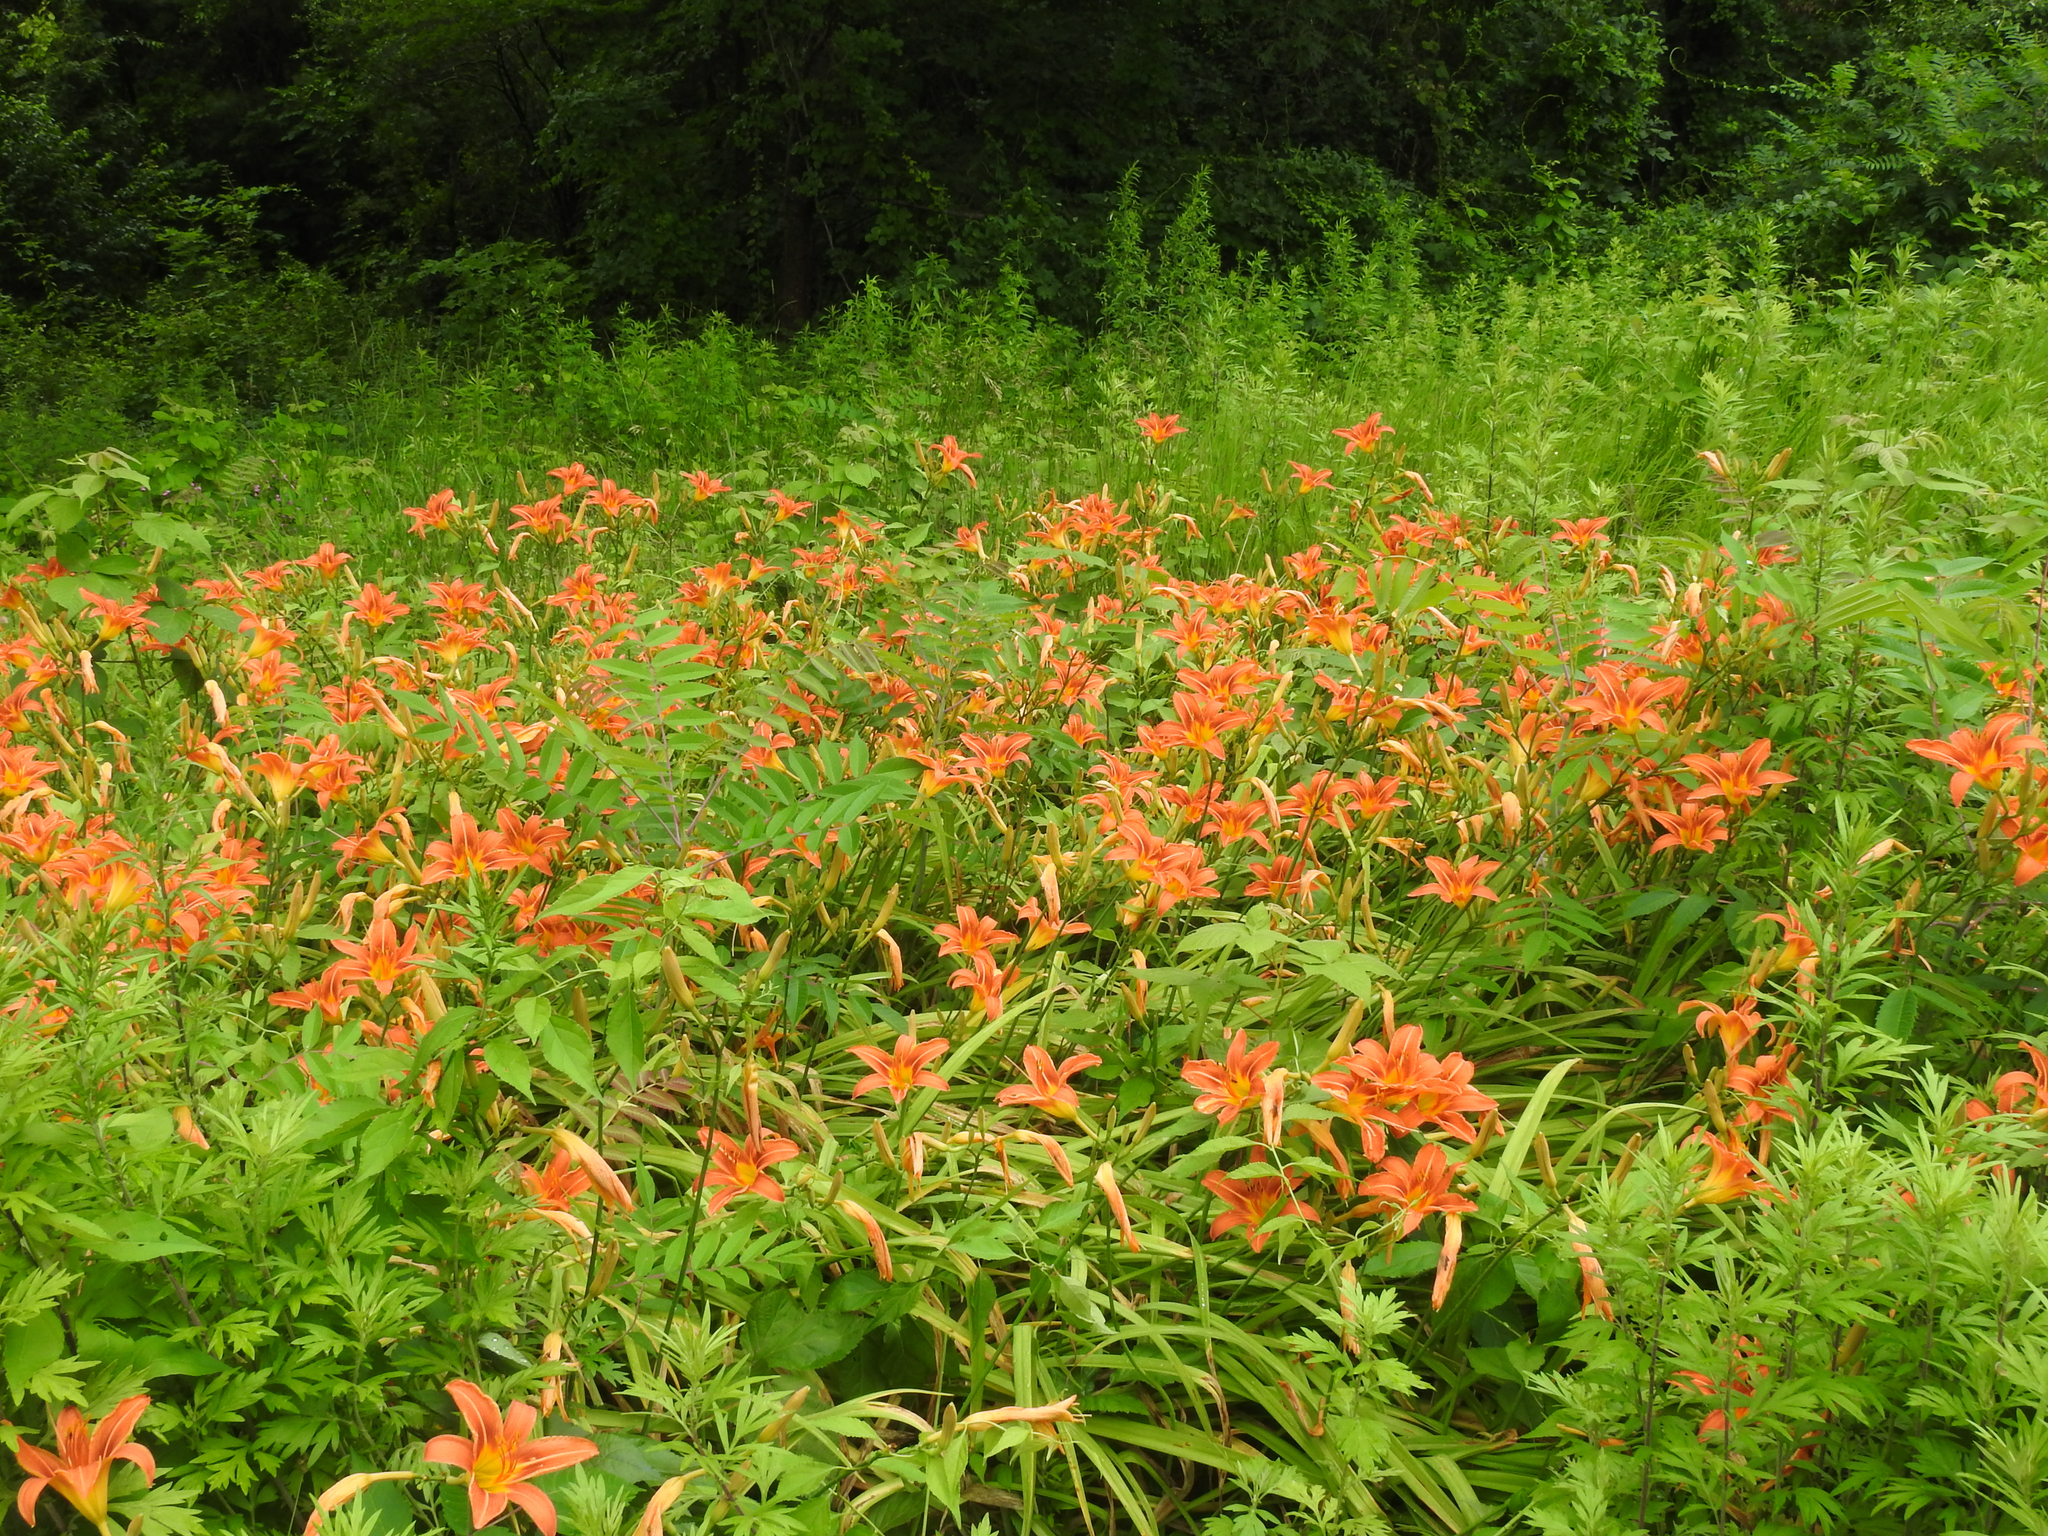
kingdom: Plantae
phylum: Tracheophyta
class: Liliopsida
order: Asparagales
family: Asphodelaceae
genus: Hemerocallis
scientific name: Hemerocallis fulva
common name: Orange day-lily
